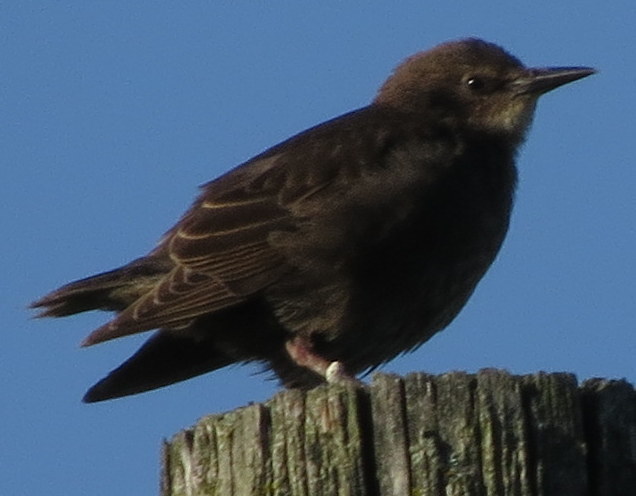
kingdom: Animalia
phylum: Chordata
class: Aves
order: Passeriformes
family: Sturnidae
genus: Sturnus
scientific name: Sturnus vulgaris
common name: Common starling
